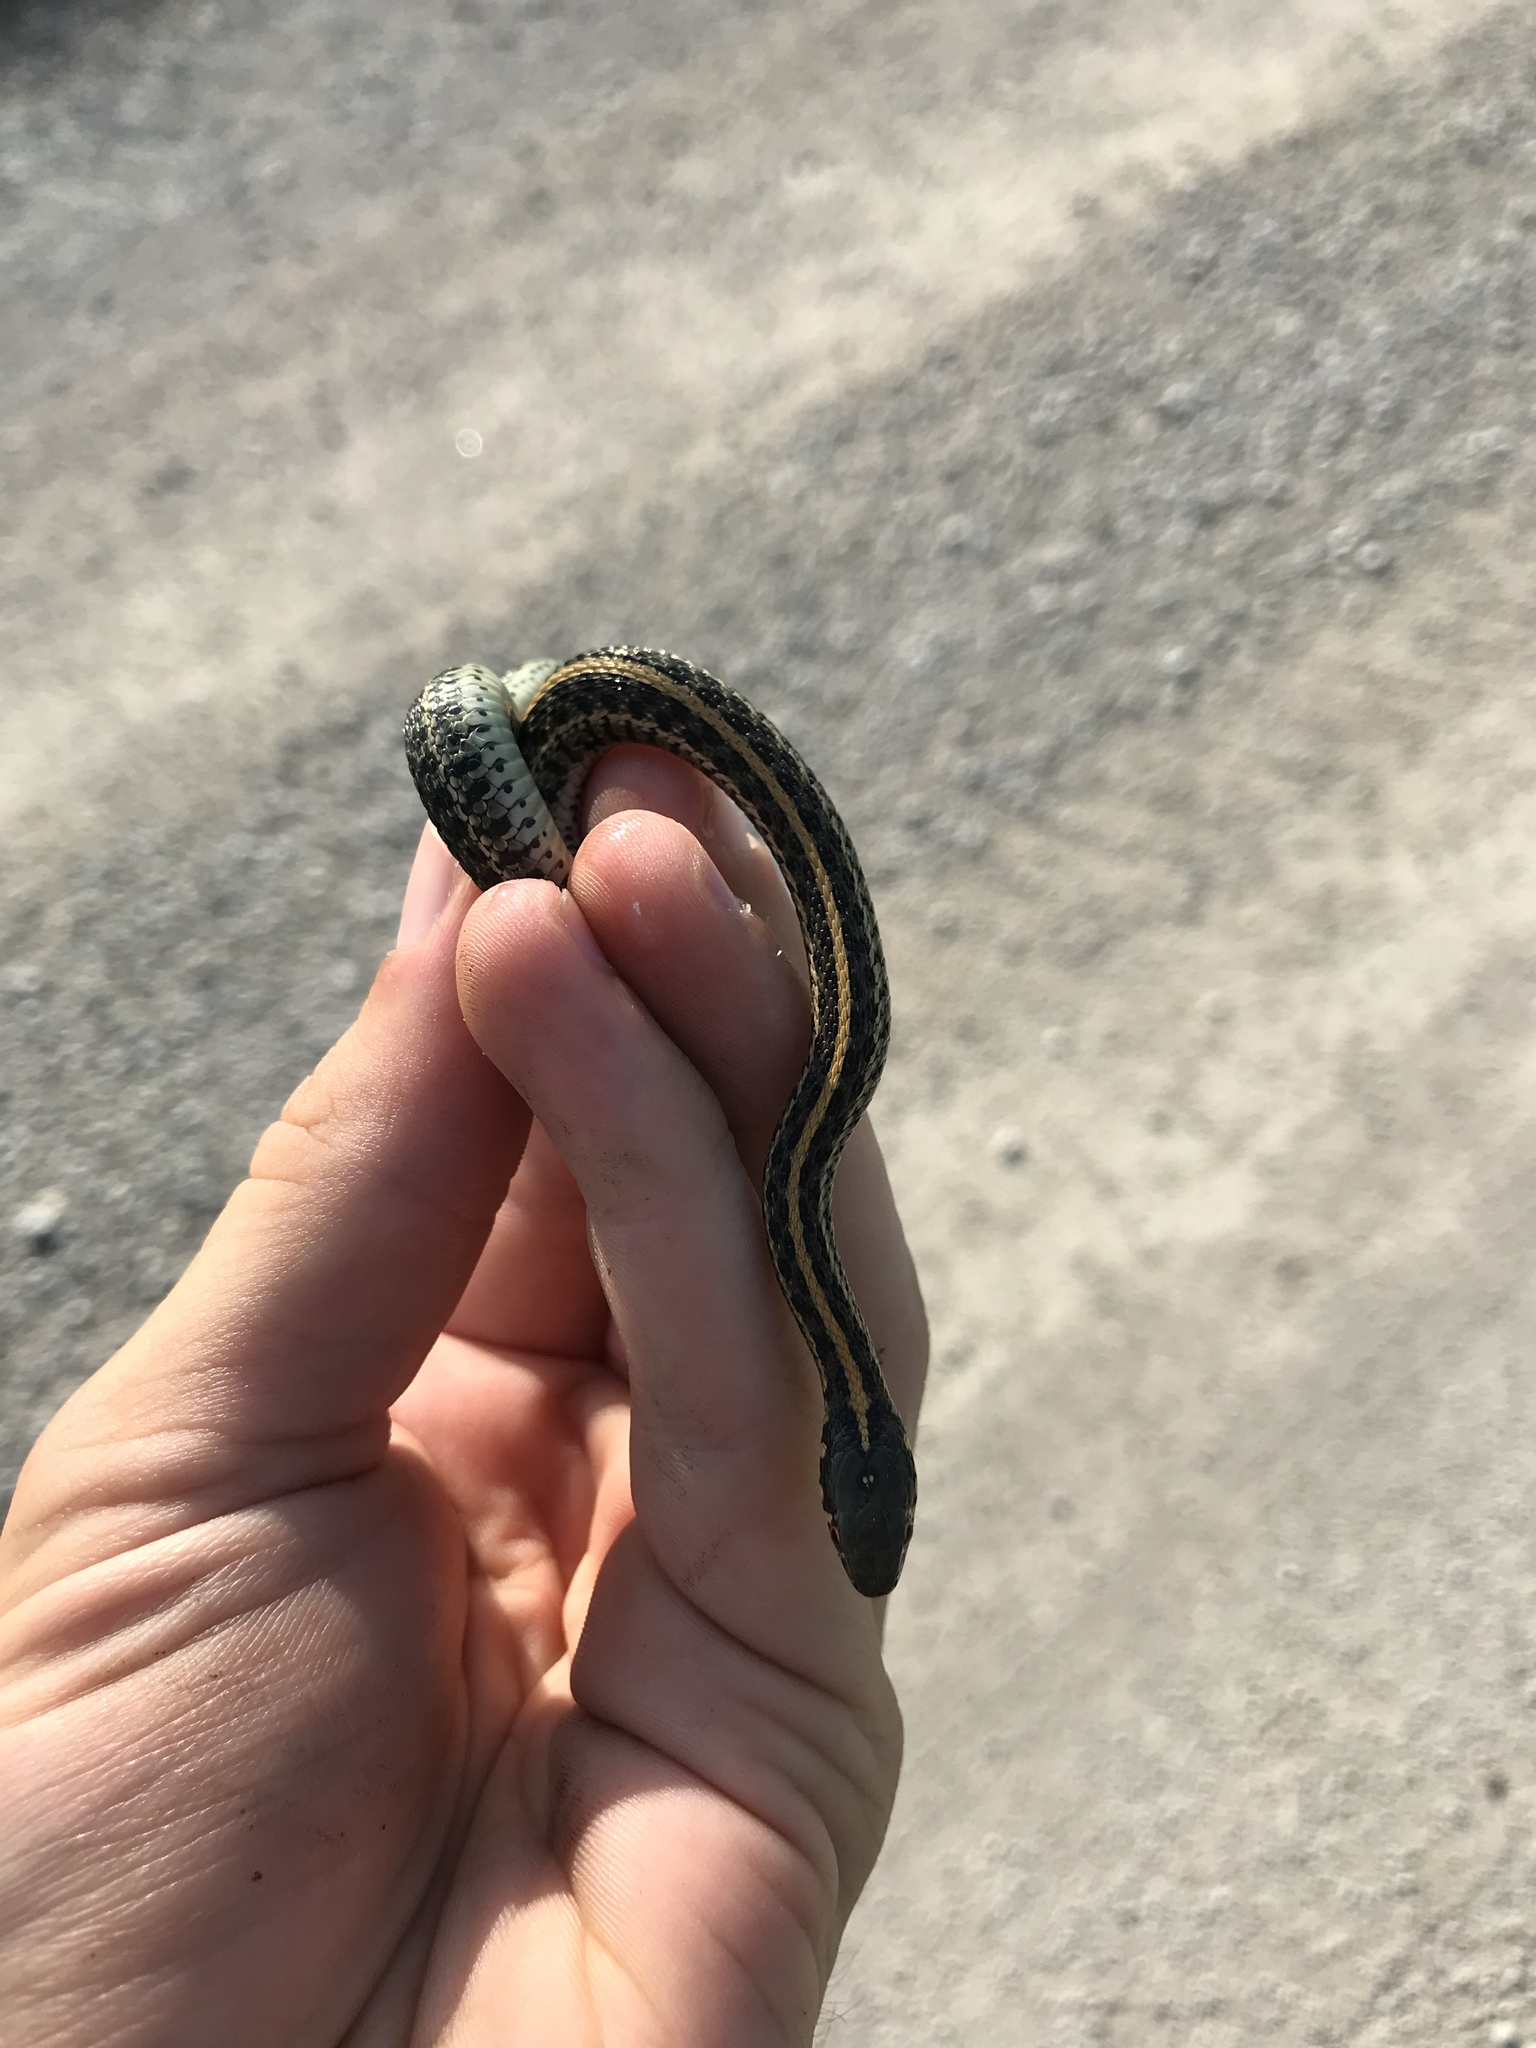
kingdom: Animalia
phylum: Chordata
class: Squamata
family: Colubridae
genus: Thamnophis
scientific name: Thamnophis radix
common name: Plains garter snake
